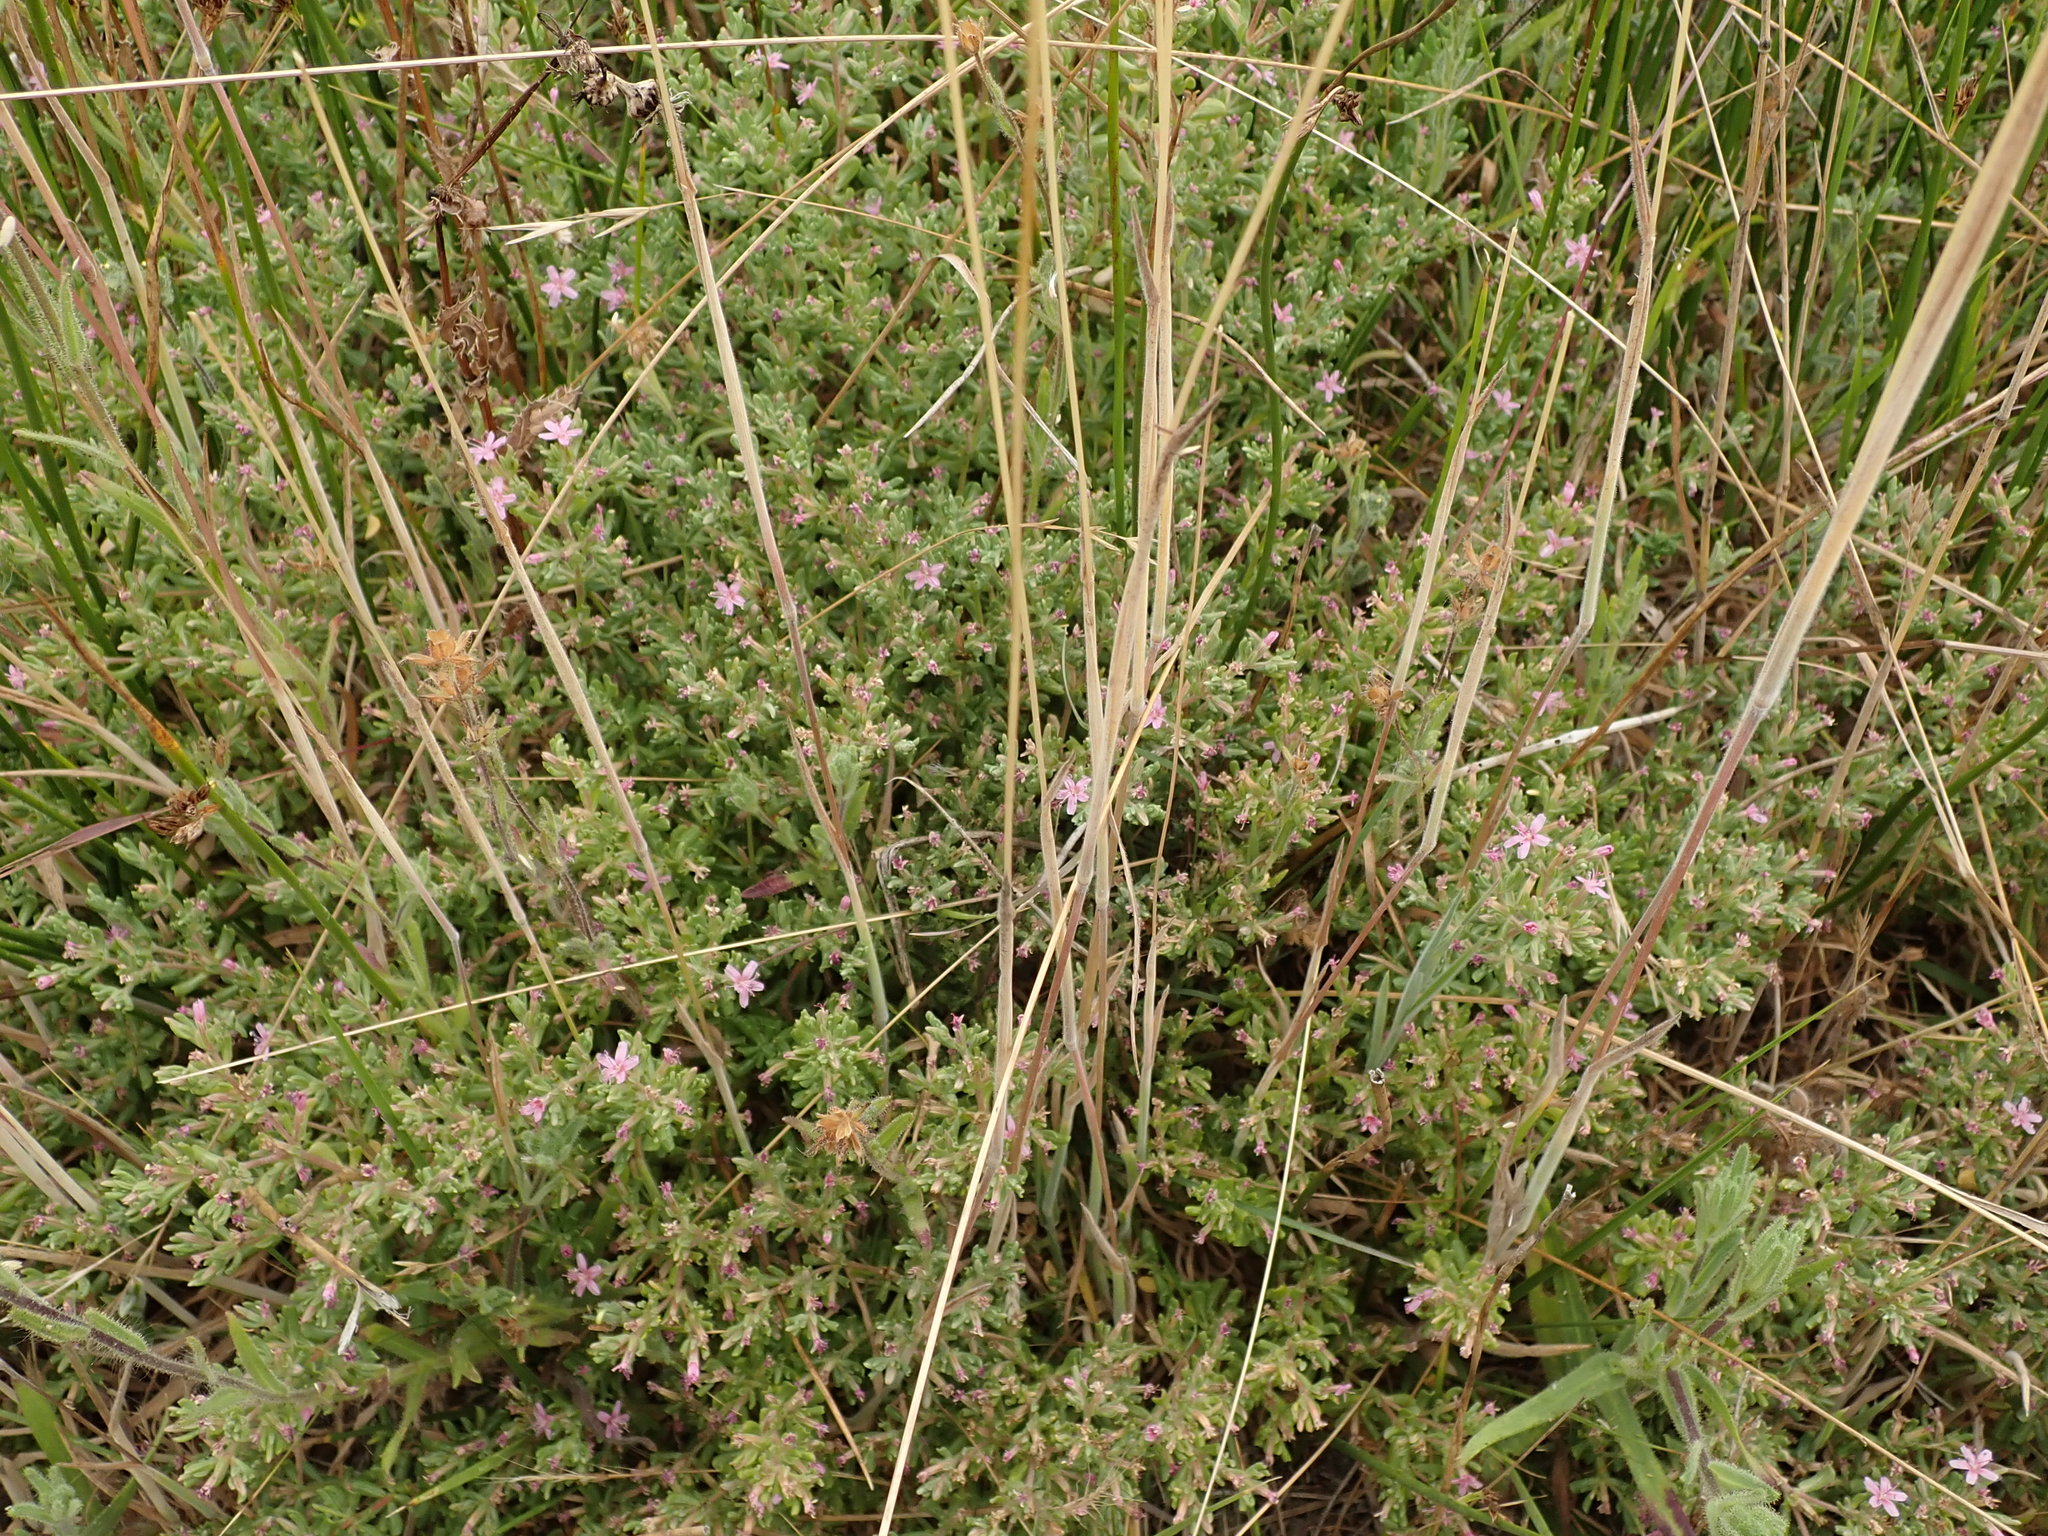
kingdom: Plantae
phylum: Tracheophyta
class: Magnoliopsida
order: Caryophyllales
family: Frankeniaceae
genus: Frankenia
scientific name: Frankenia salina
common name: Alkali seaheath
